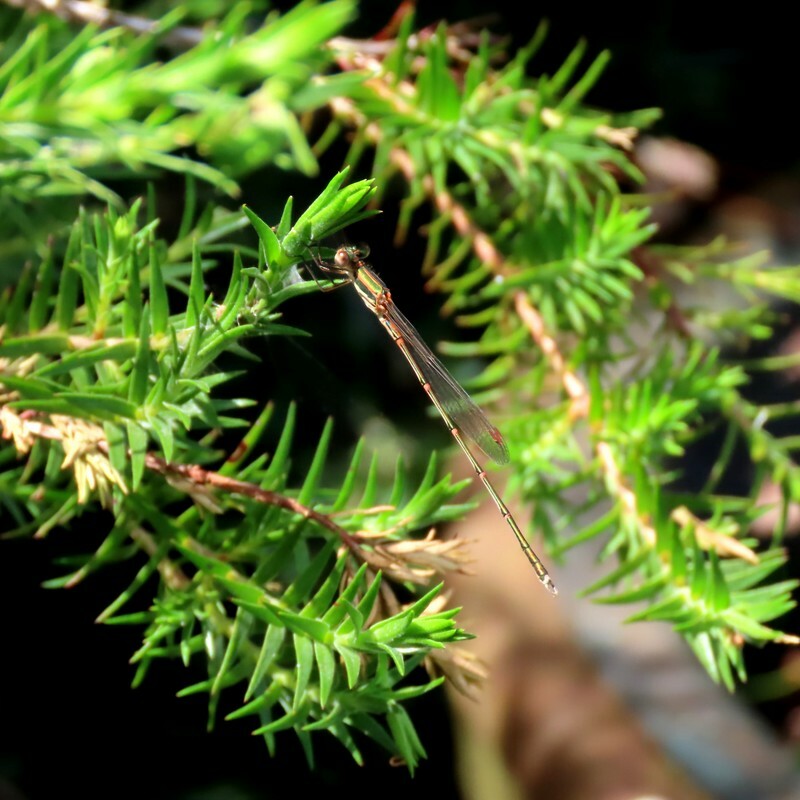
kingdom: Animalia
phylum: Arthropoda
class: Insecta
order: Odonata
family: Lestidae
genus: Austrolestes
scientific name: Austrolestes analis
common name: Slender ringtail
